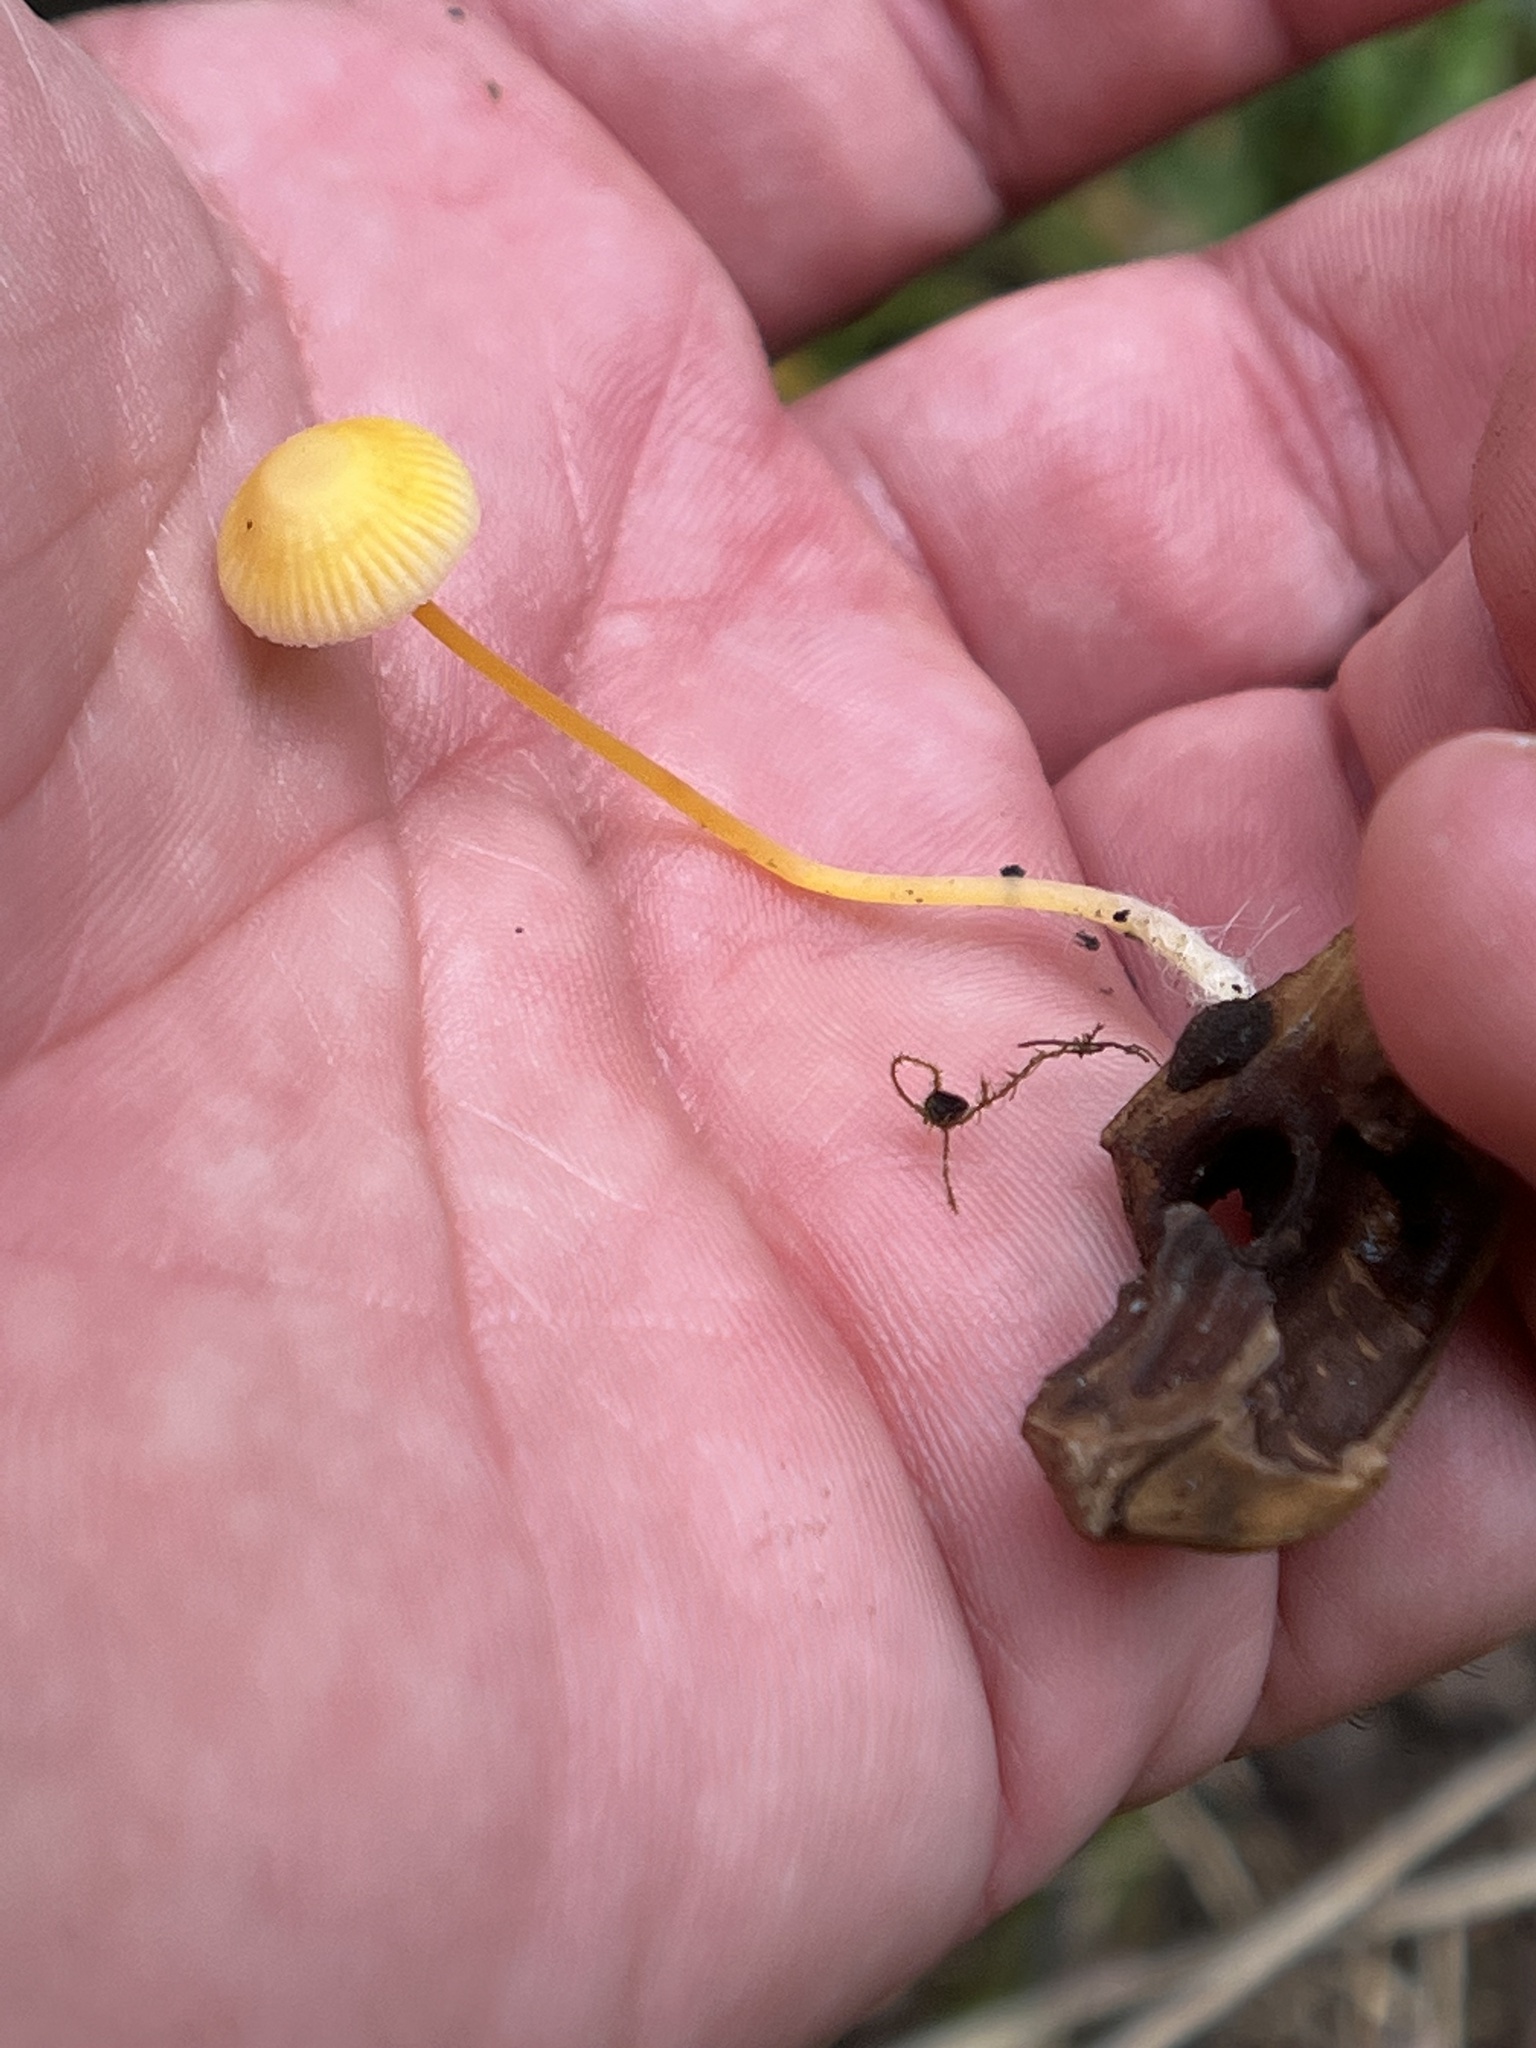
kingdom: Fungi
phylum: Basidiomycota
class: Agaricomycetes
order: Agaricales
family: Mycenaceae
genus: Mycena
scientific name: Mycena crocea
